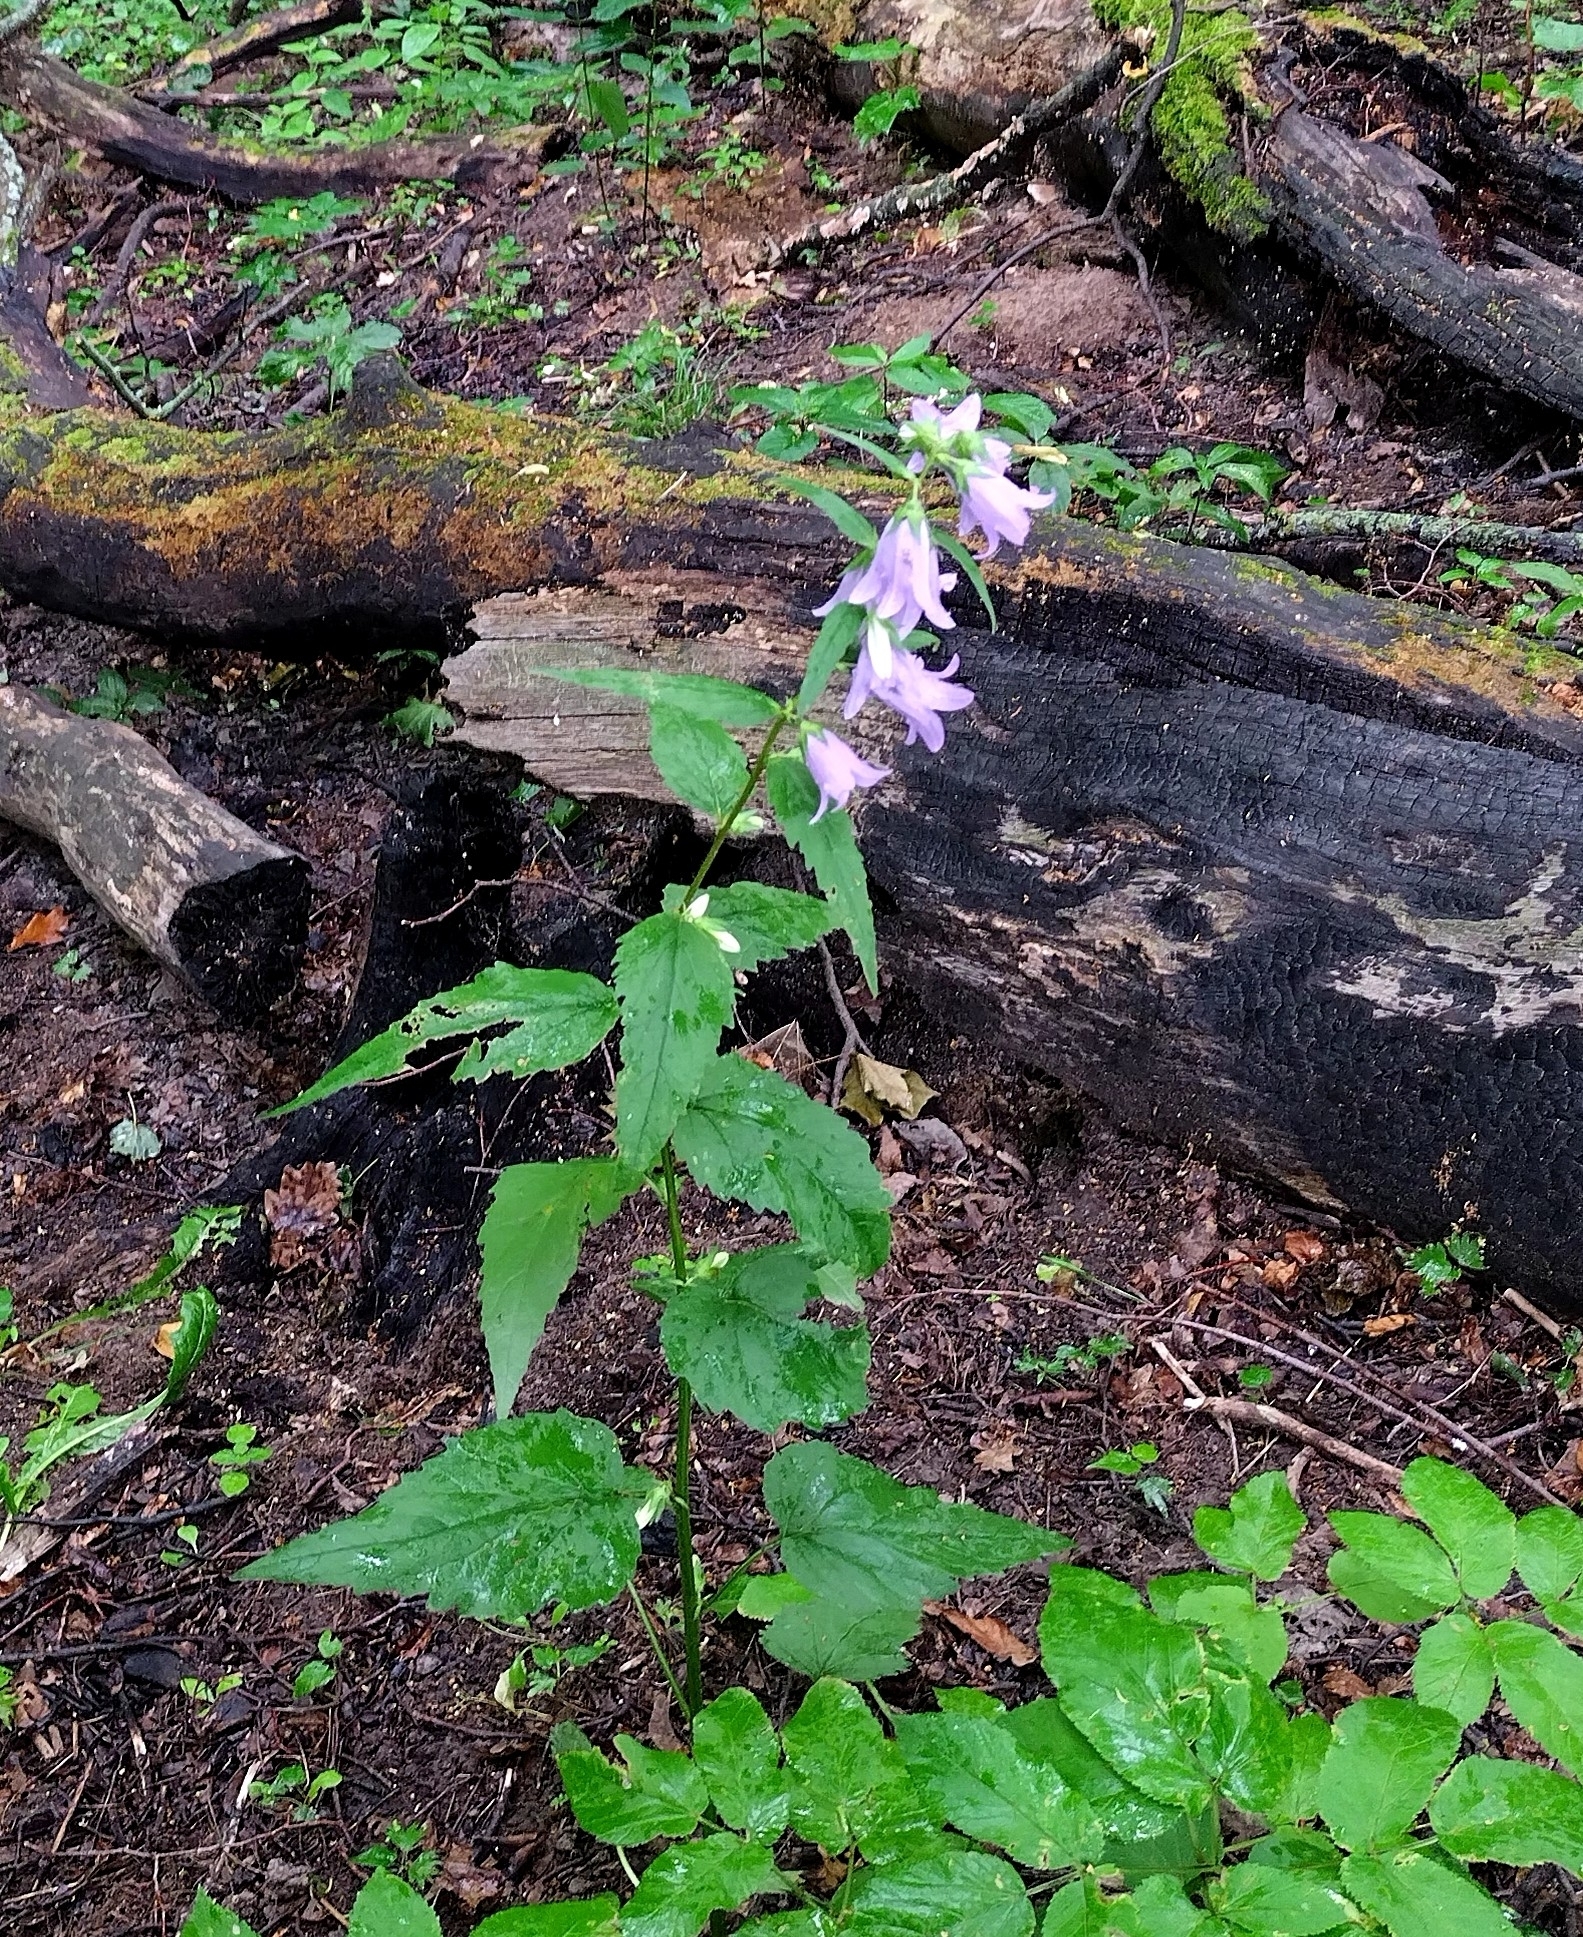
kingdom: Plantae
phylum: Tracheophyta
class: Magnoliopsida
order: Asterales
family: Campanulaceae
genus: Campanula
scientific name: Campanula trachelium
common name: Nettle-leaved bellflower
